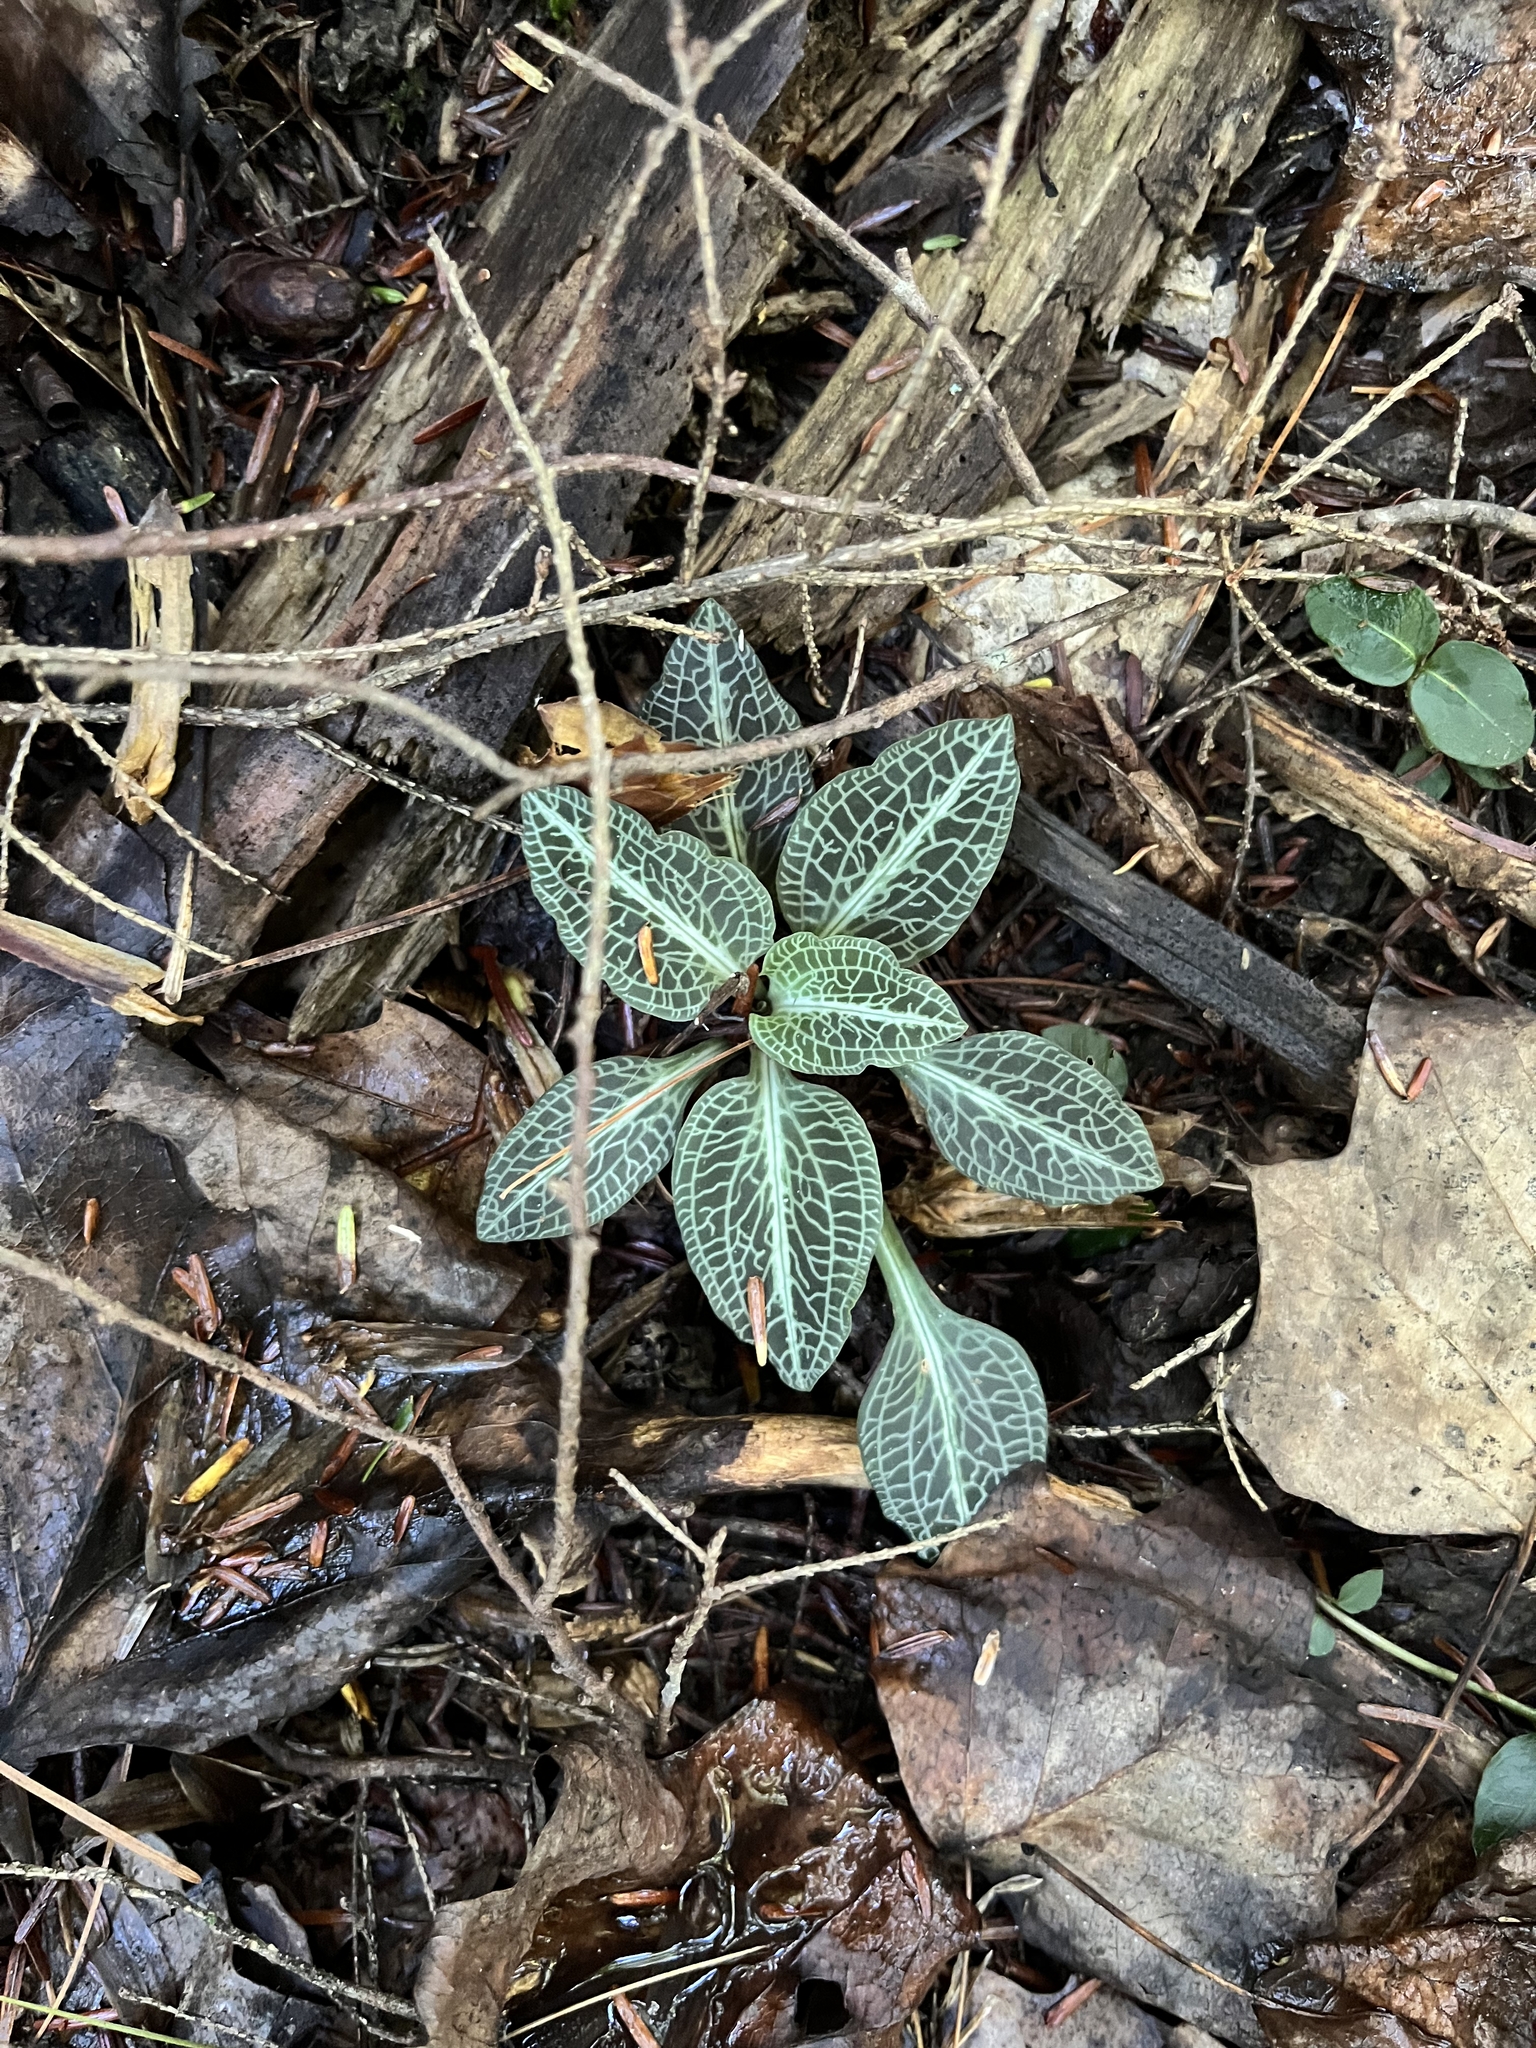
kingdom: Plantae
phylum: Tracheophyta
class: Liliopsida
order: Asparagales
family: Orchidaceae
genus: Goodyera
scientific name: Goodyera pubescens
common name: Downy rattlesnake-plantain
